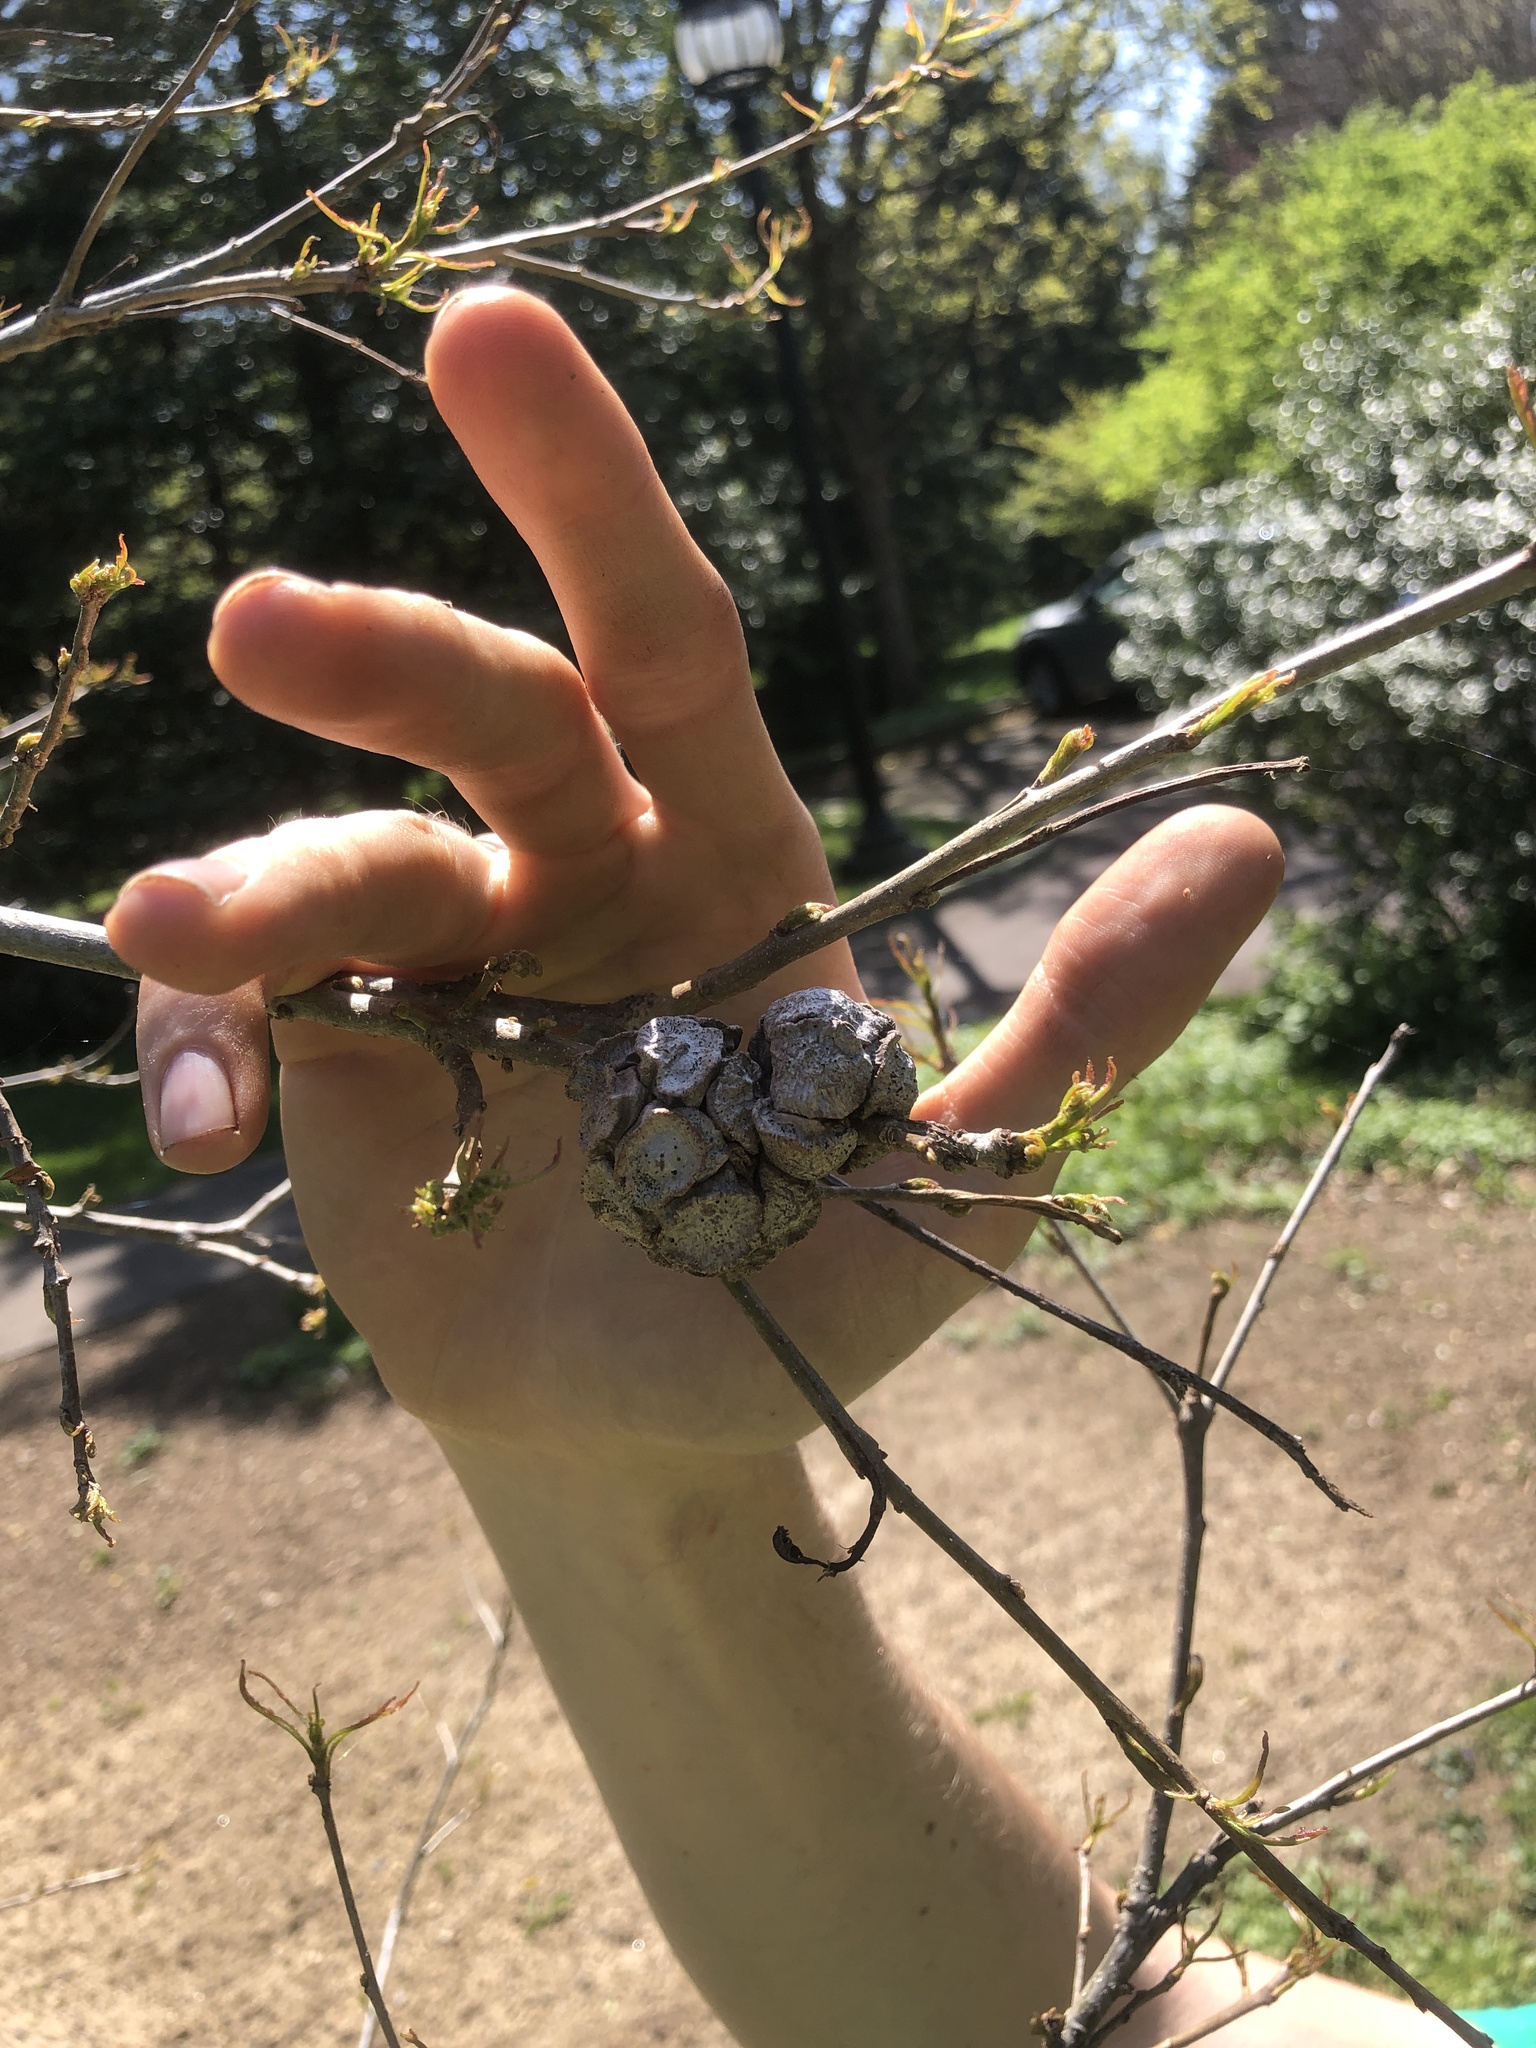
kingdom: Animalia
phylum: Arthropoda
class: Insecta
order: Hymenoptera
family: Cynipidae
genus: Andricus
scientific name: Andricus
